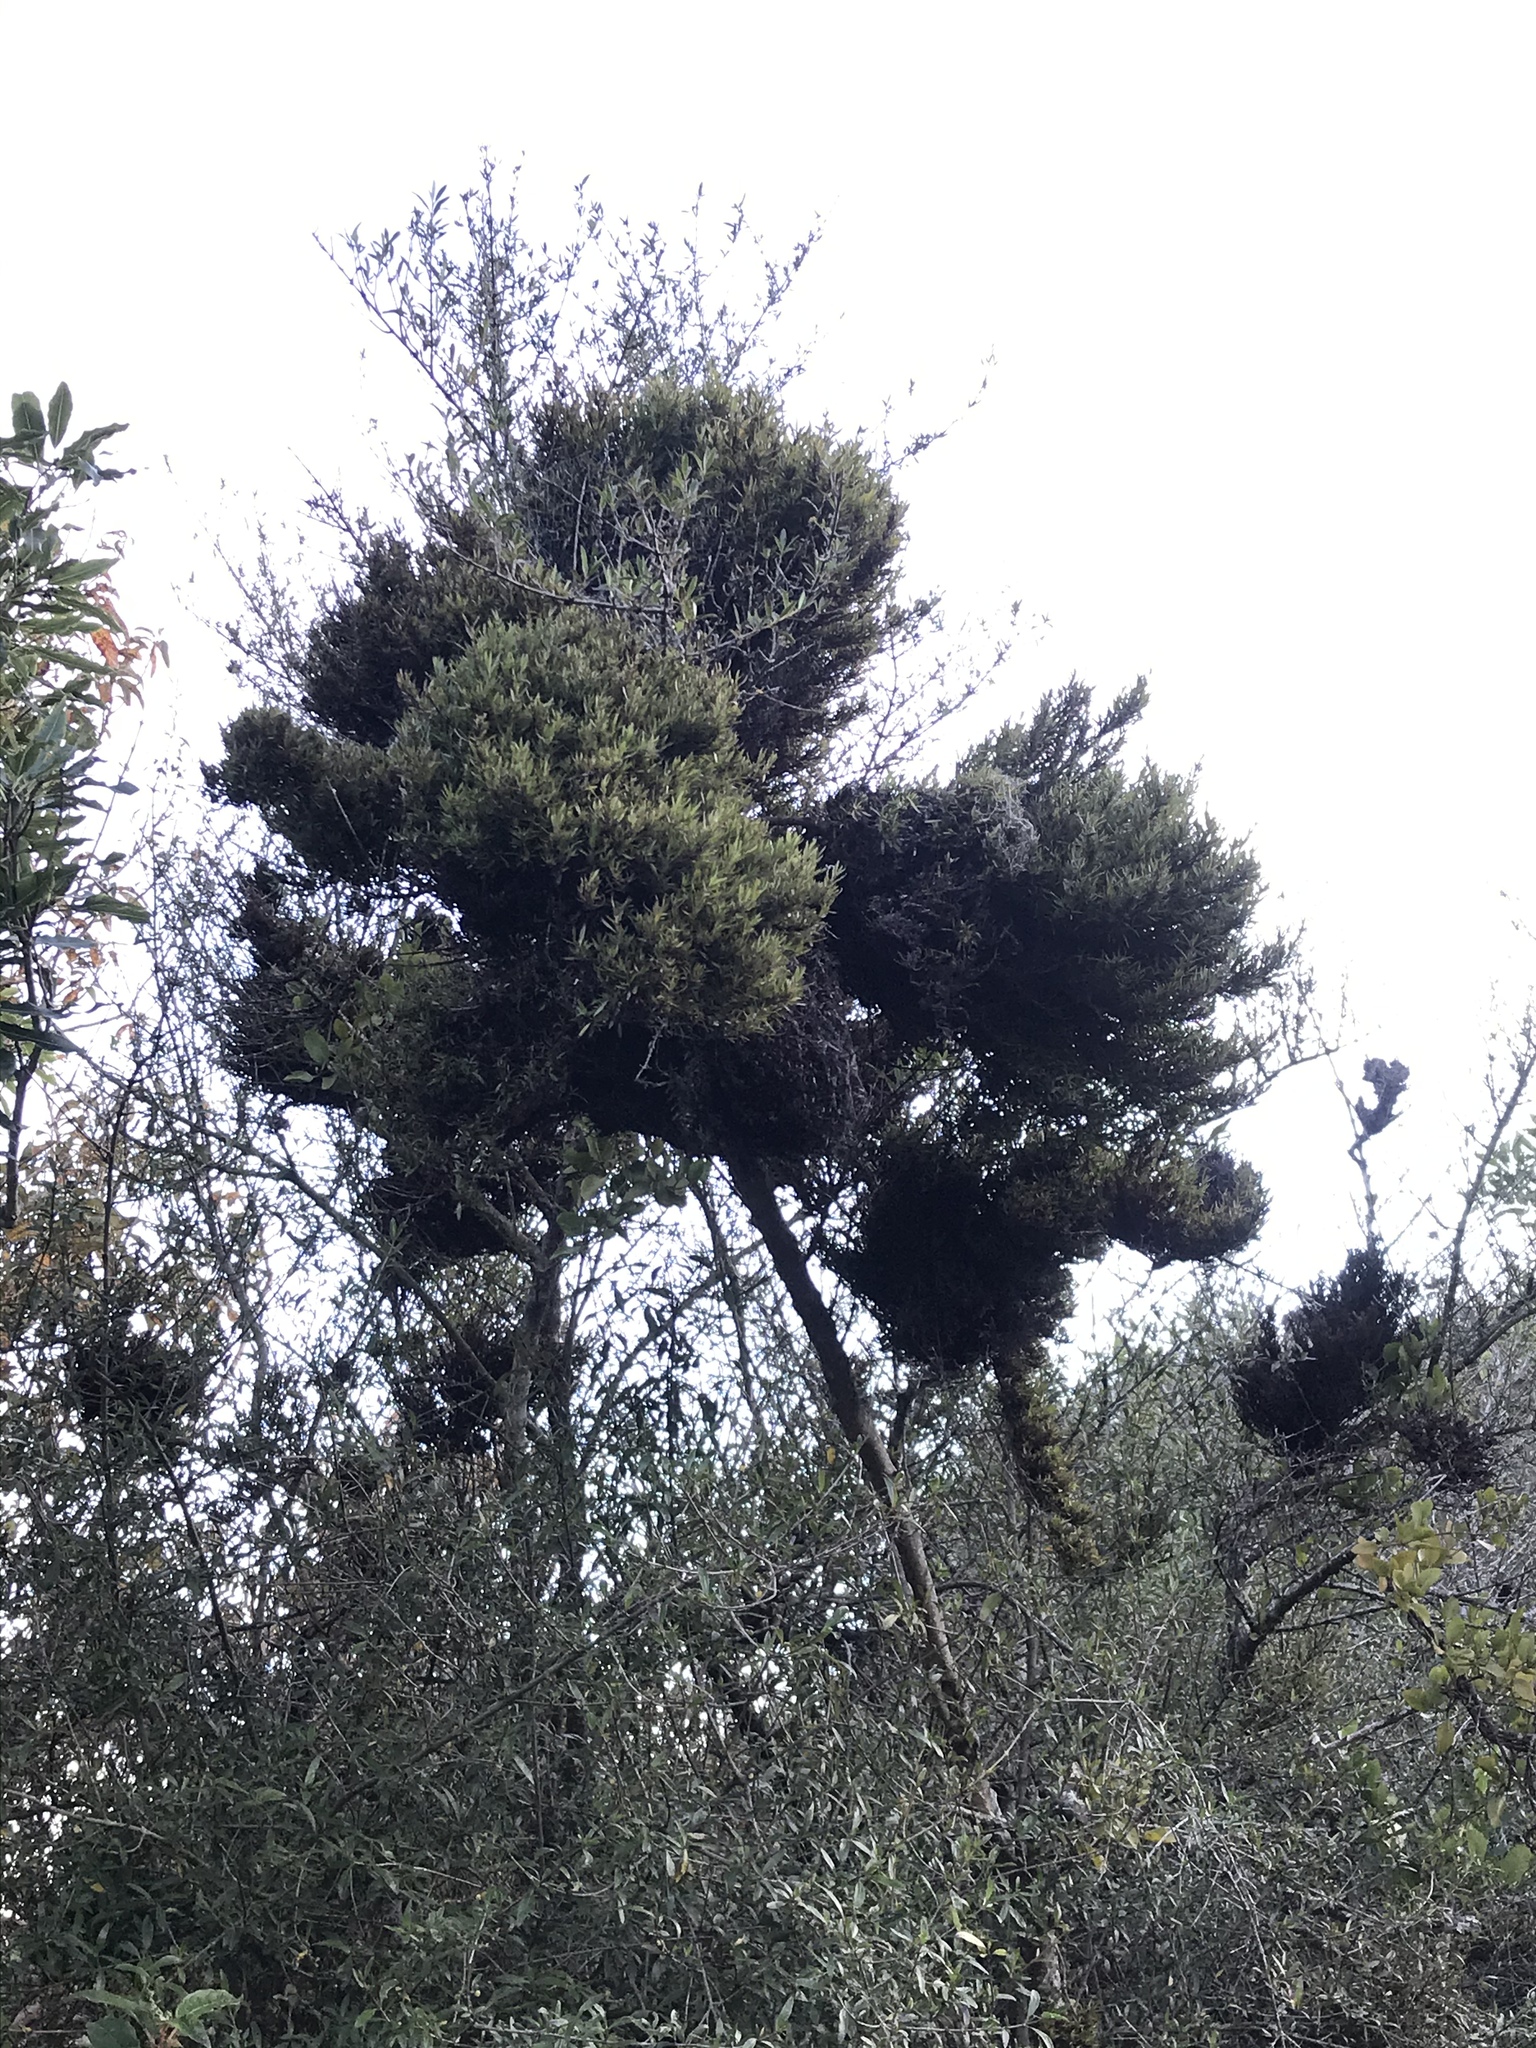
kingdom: Plantae
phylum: Tracheophyta
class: Magnoliopsida
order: Santalales
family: Loranthaceae
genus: Ileostylus
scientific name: Ileostylus micranthus
